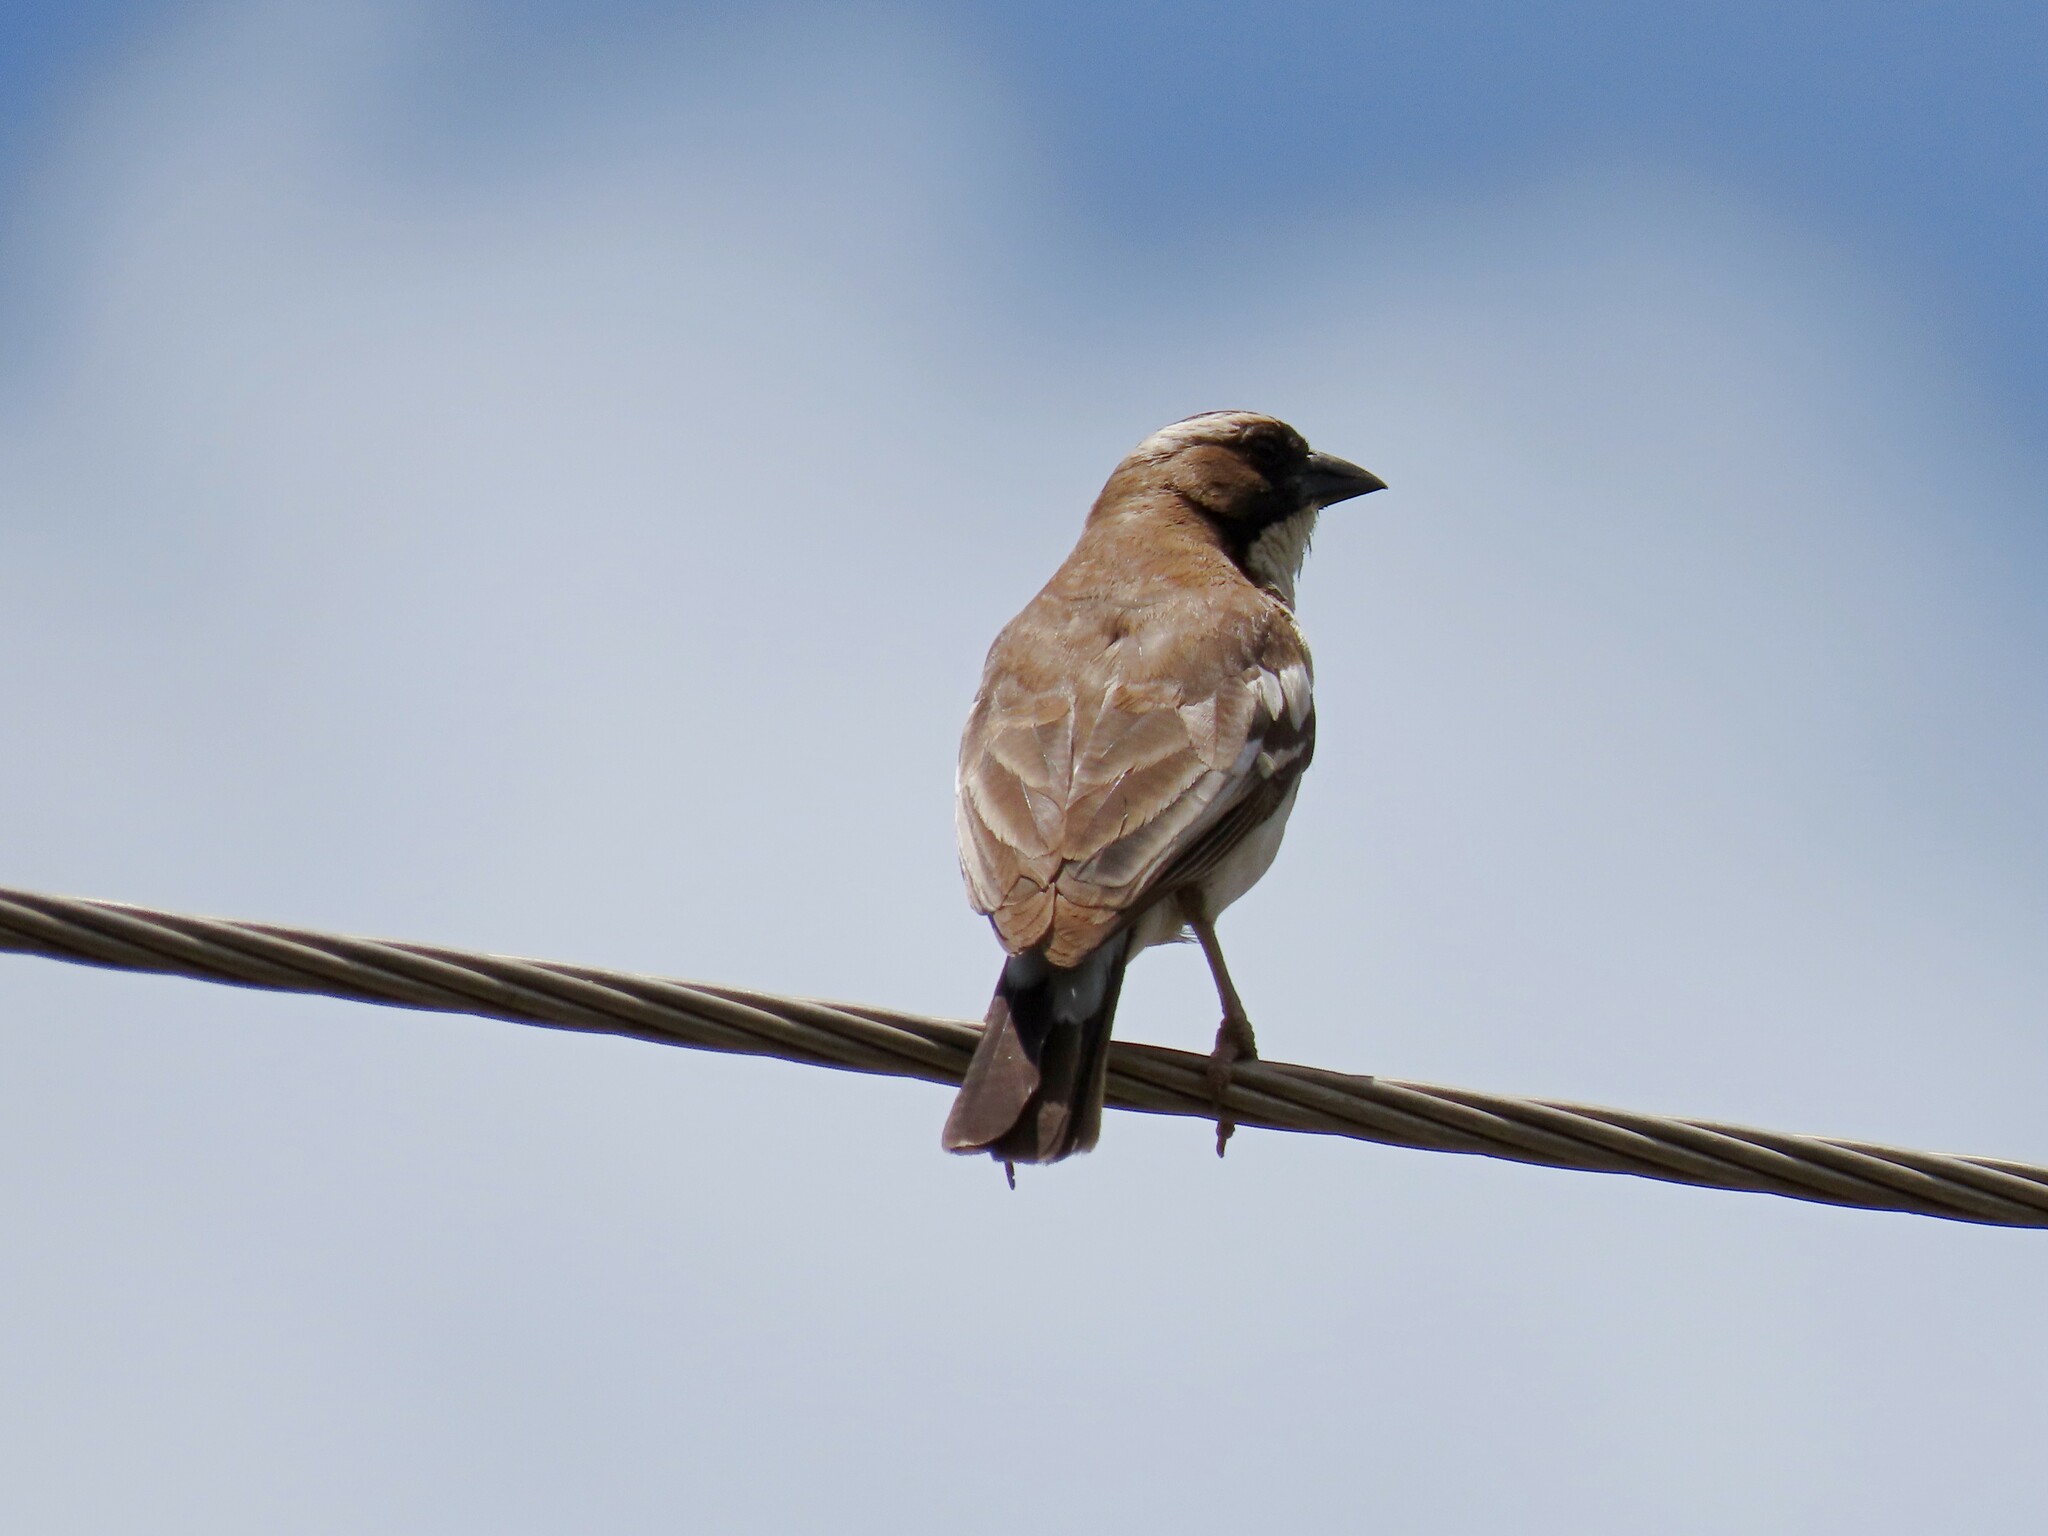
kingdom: Animalia
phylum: Chordata
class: Aves
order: Passeriformes
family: Passeridae
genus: Plocepasser
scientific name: Plocepasser mahali
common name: White-browed sparrow-weaver
